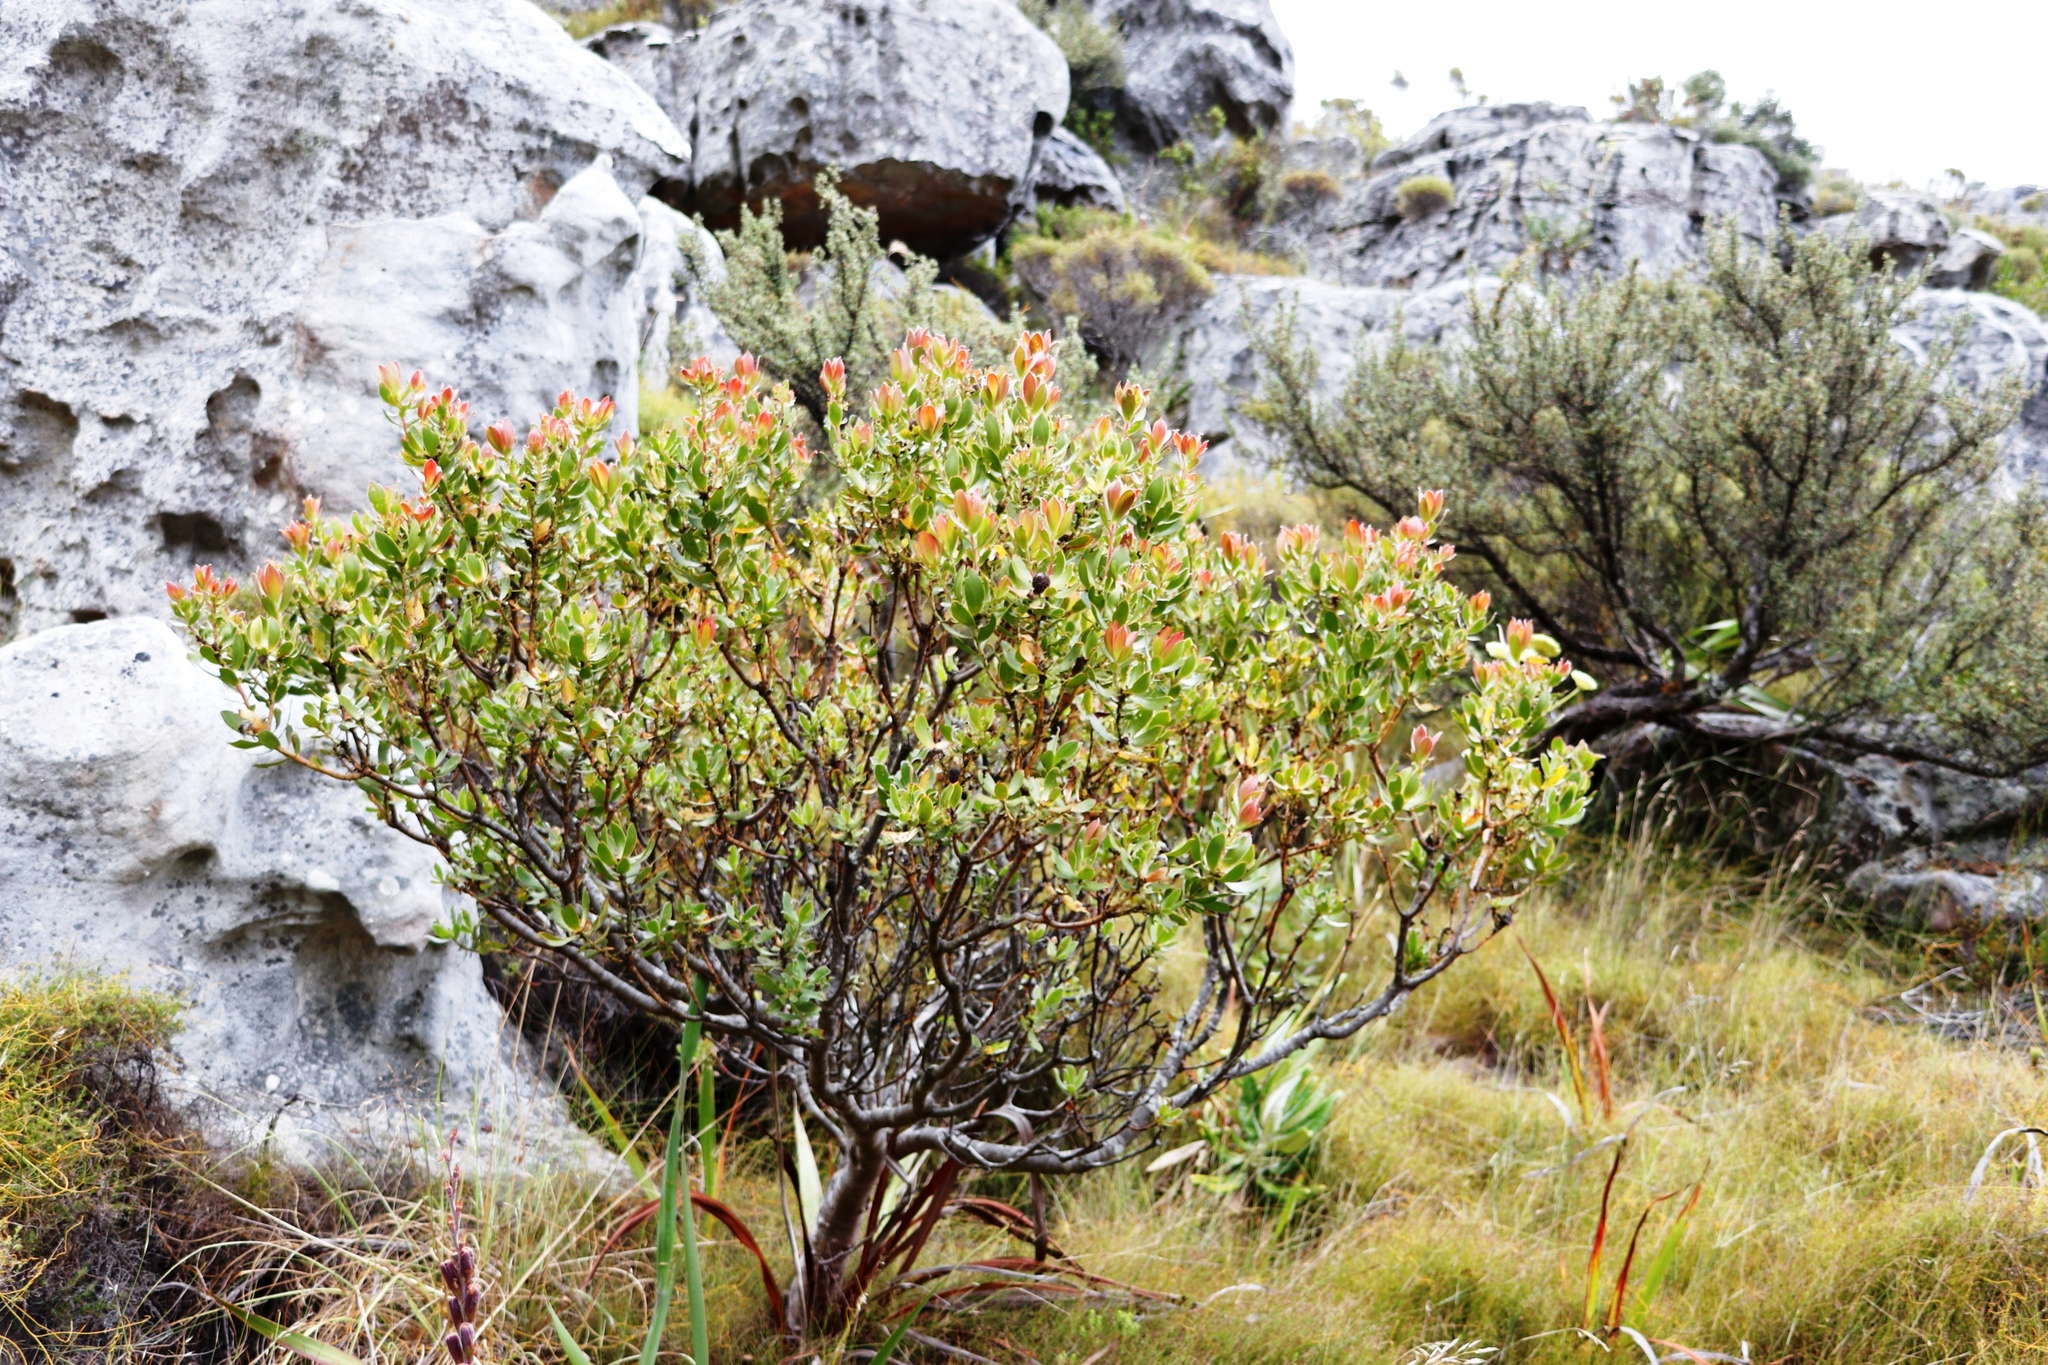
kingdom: Plantae
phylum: Tracheophyta
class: Magnoliopsida
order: Proteales
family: Proteaceae
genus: Leucadendron
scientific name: Leucadendron strobilinum
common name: Mountain rose
